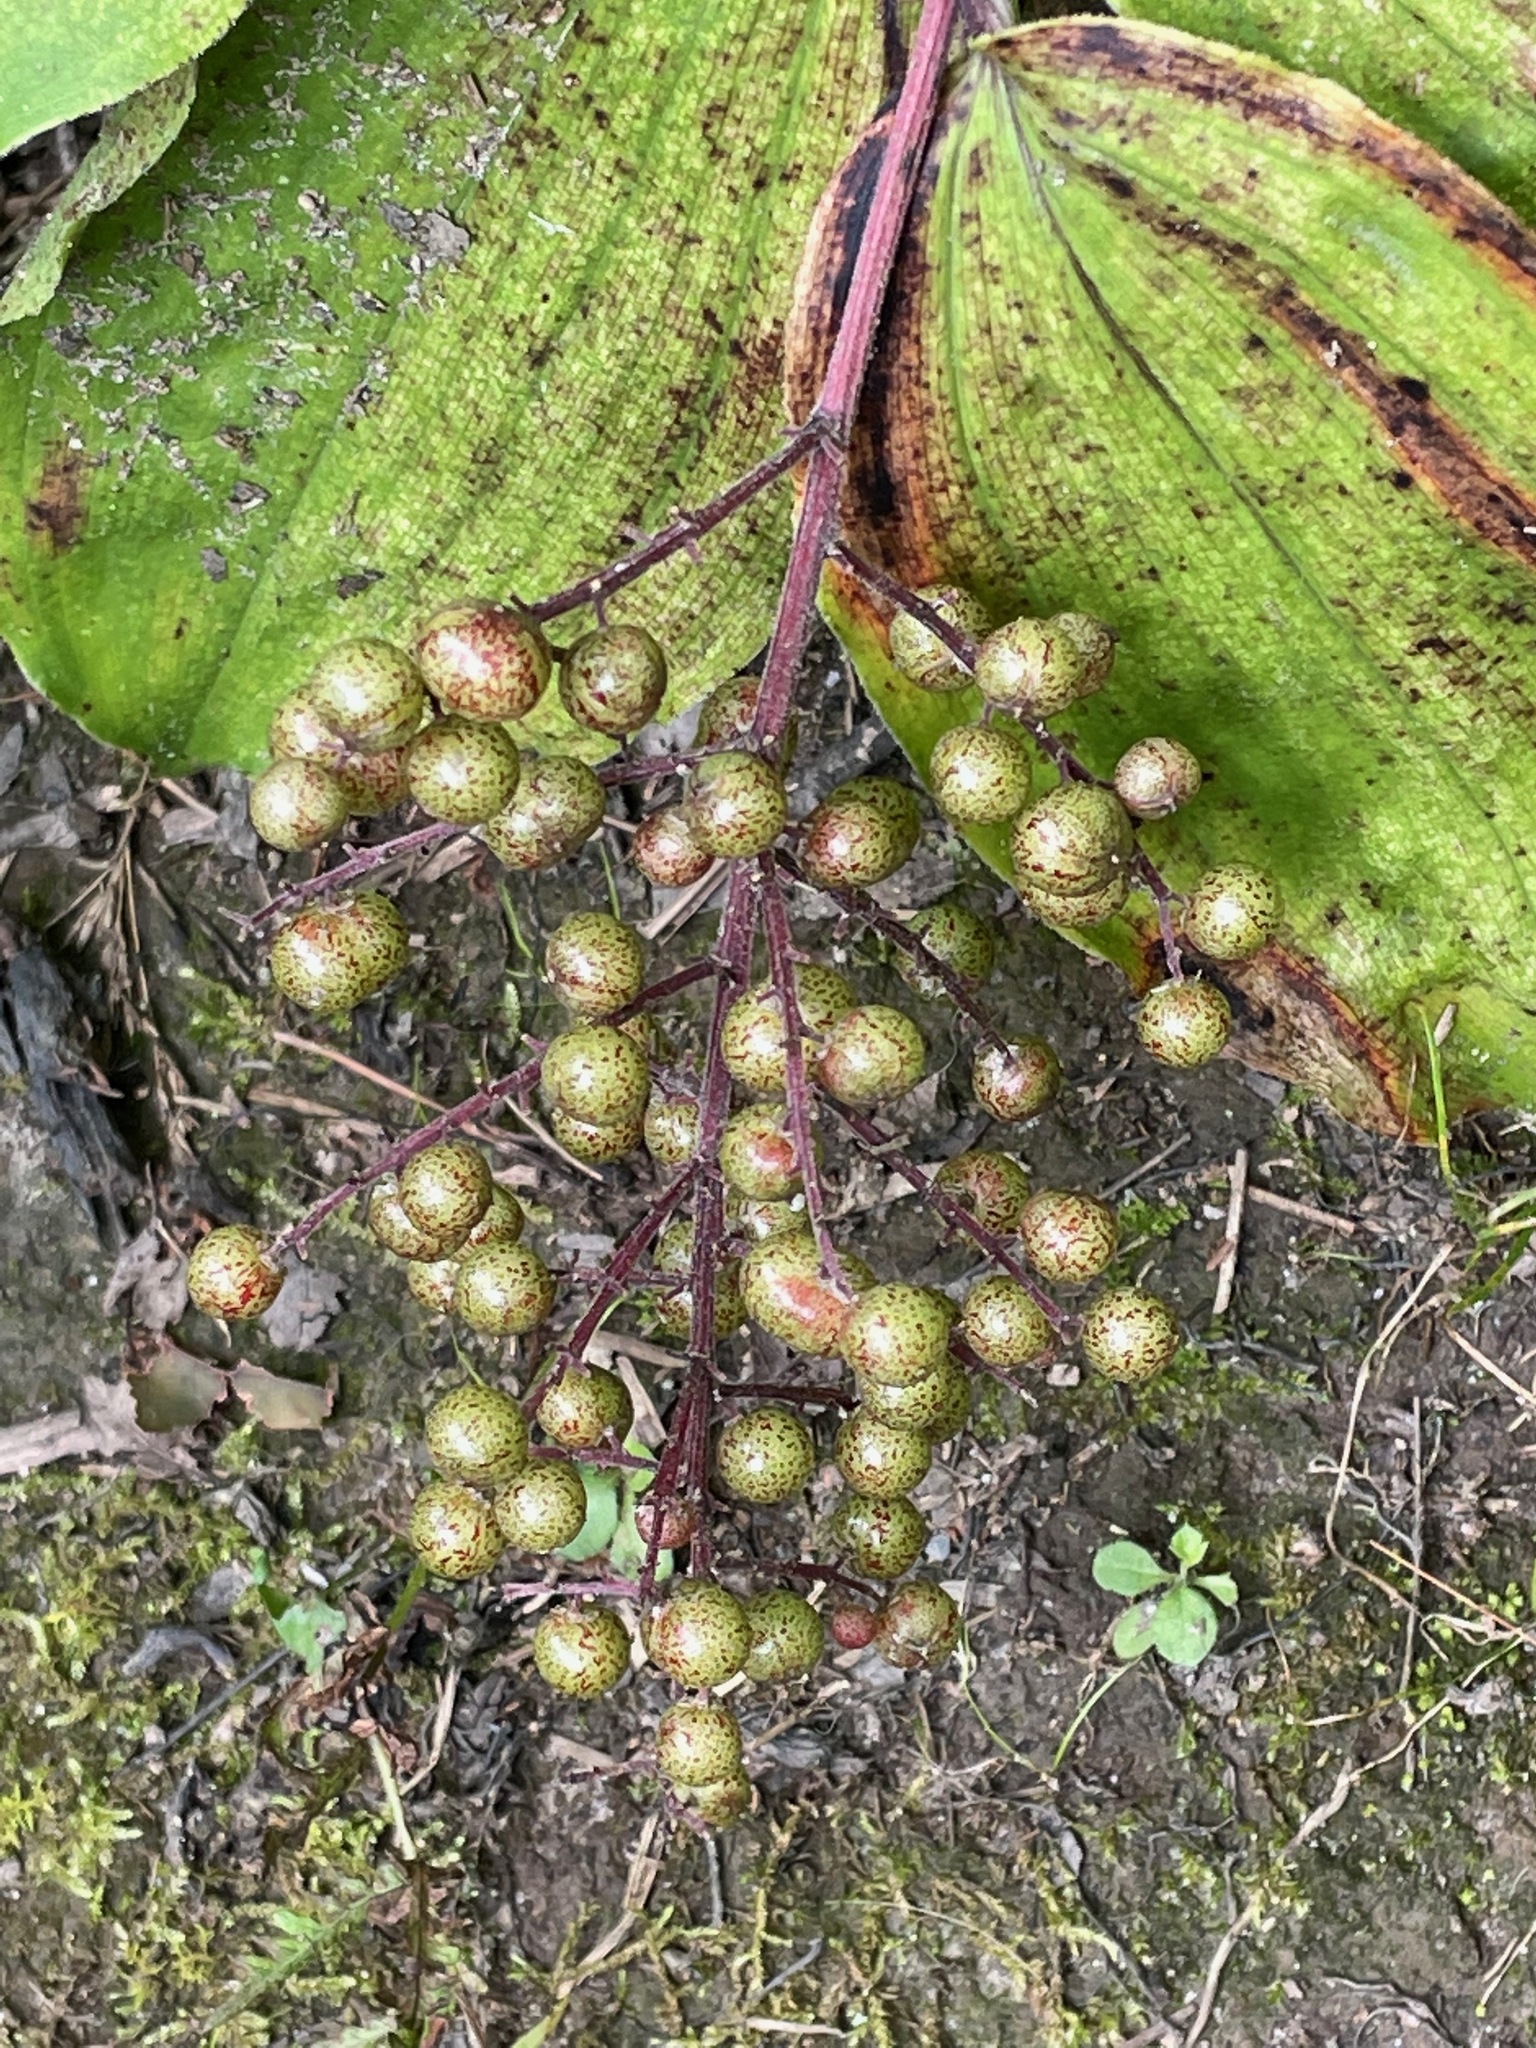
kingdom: Plantae
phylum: Tracheophyta
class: Liliopsida
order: Asparagales
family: Asparagaceae
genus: Maianthemum
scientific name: Maianthemum racemosum
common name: False spikenard
